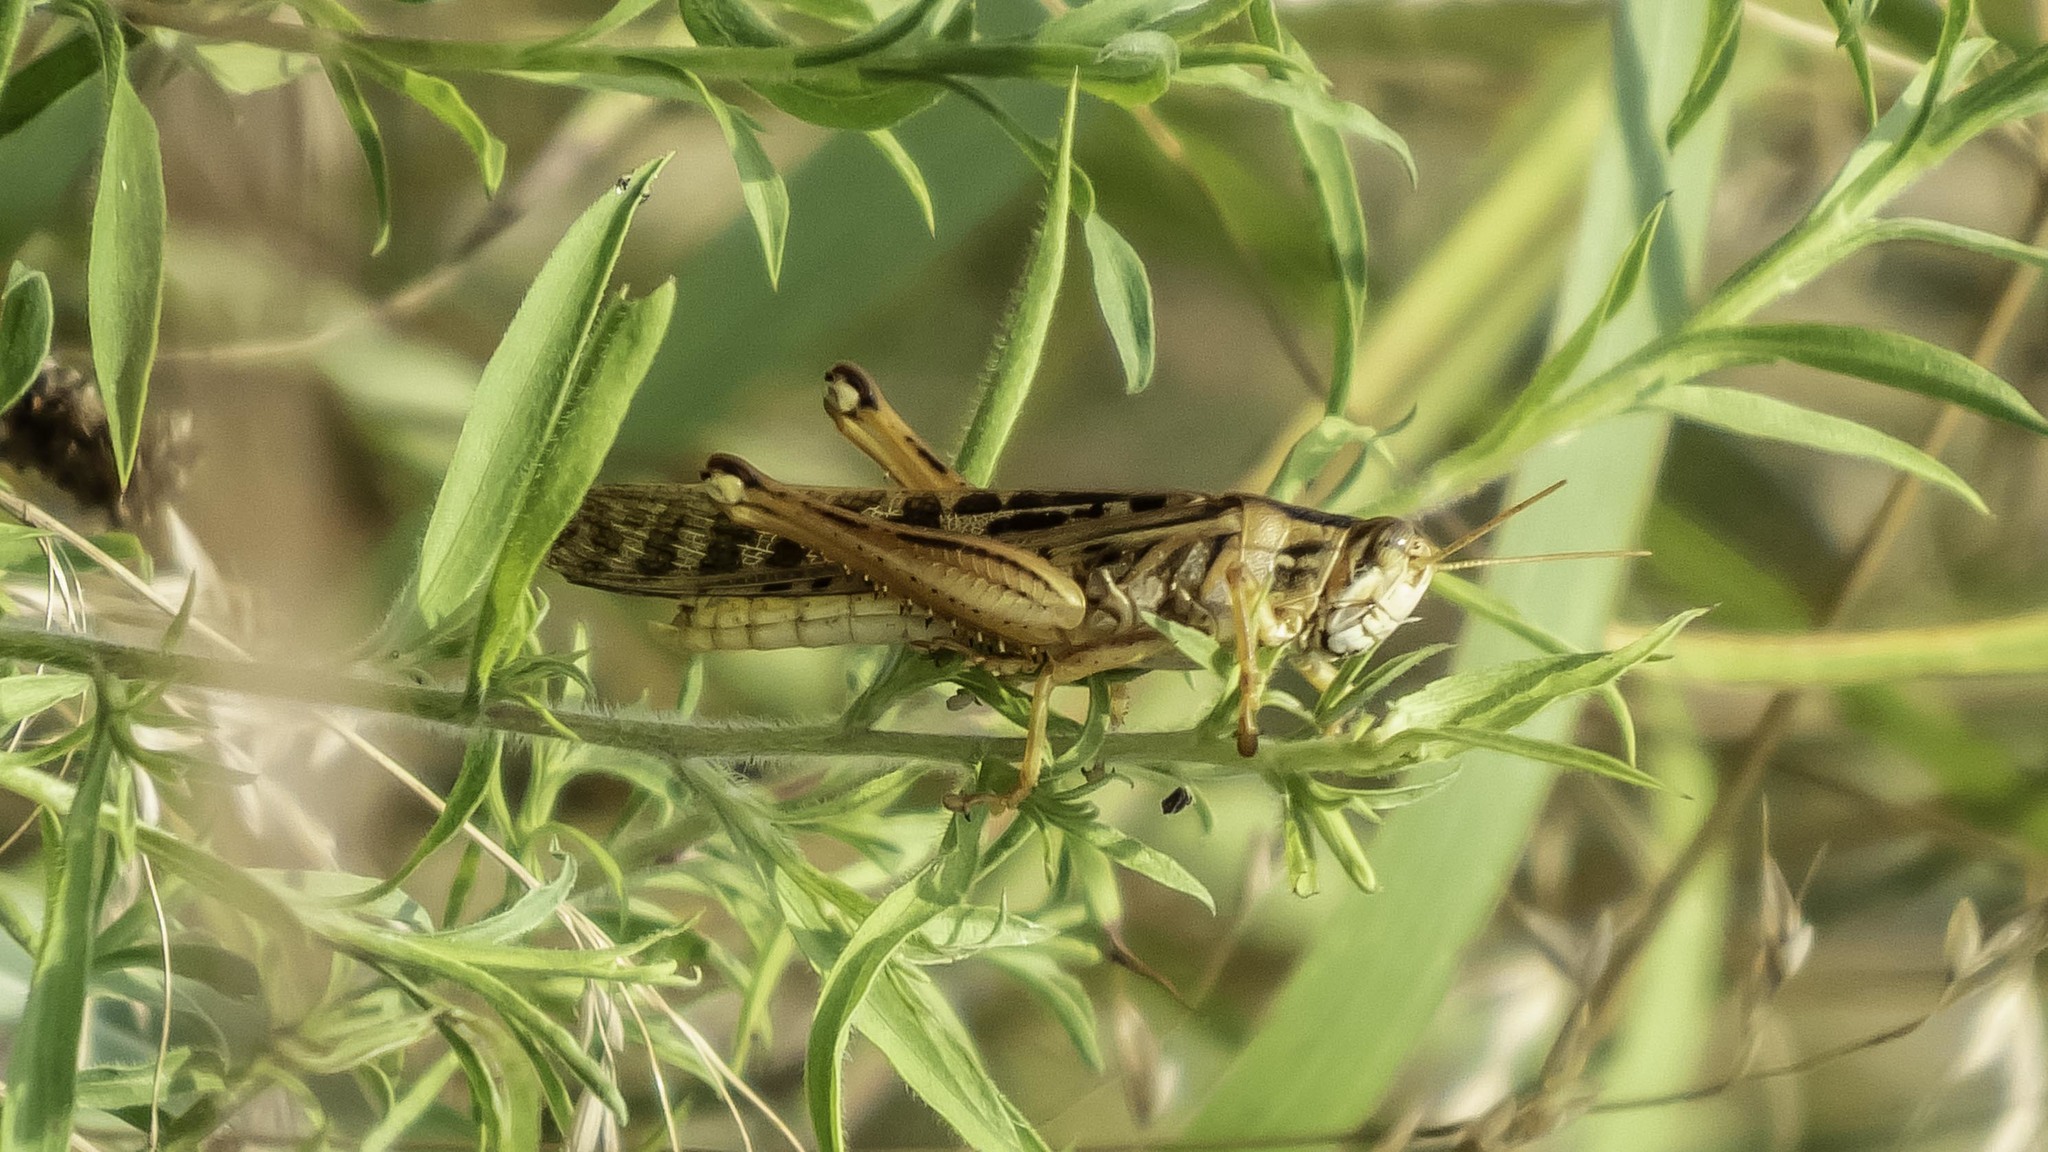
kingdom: Animalia
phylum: Arthropoda
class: Insecta
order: Orthoptera
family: Acrididae
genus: Schistocerca
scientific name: Schistocerca americana
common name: American bird locust
